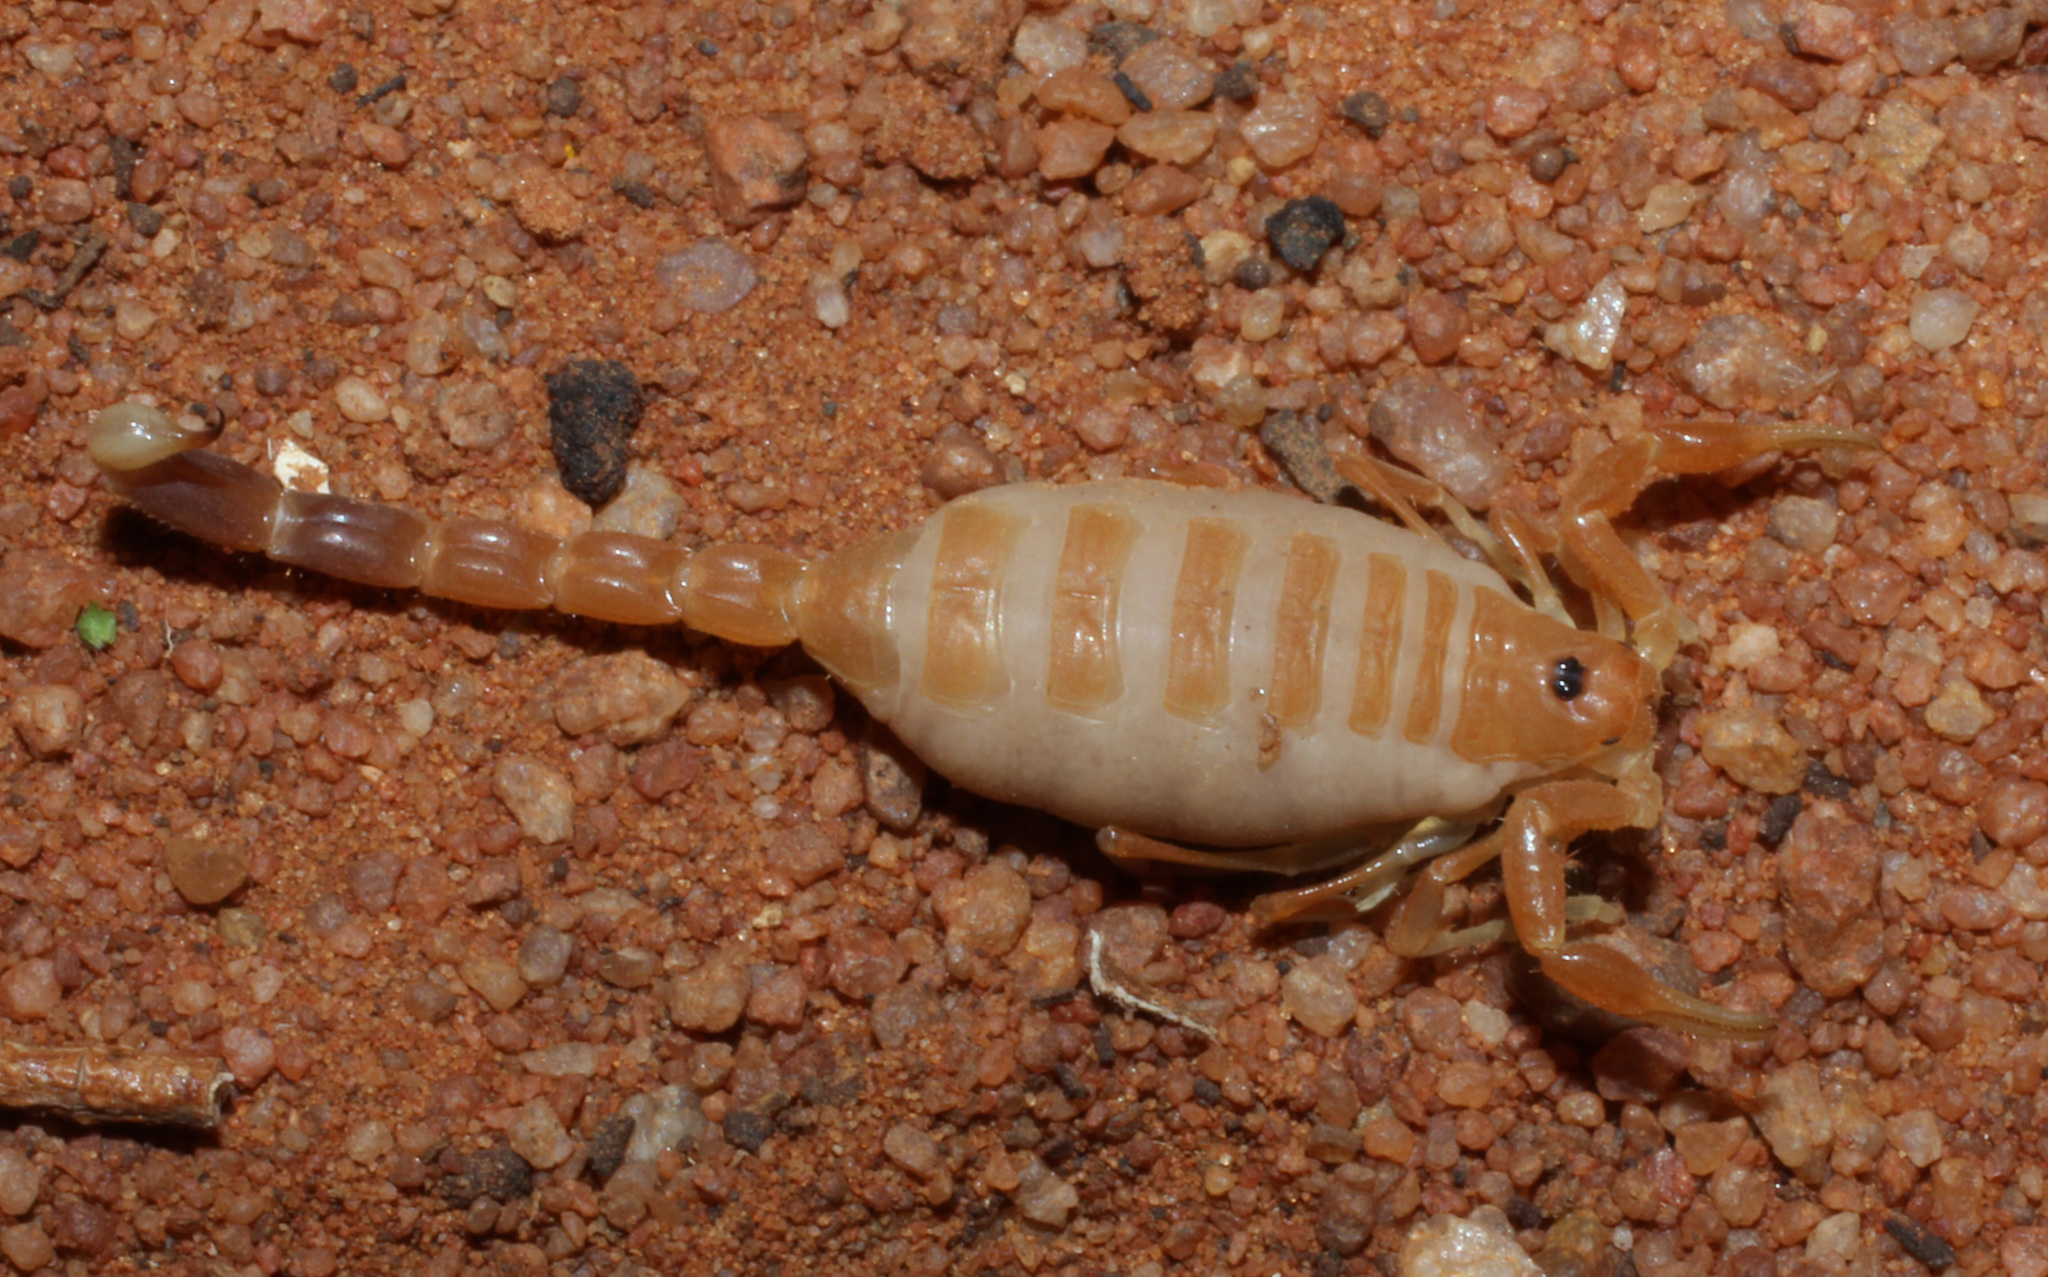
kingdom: Animalia
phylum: Arthropoda
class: Arachnida
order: Scorpiones
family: Buthidae
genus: Parabuthus
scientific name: Parabuthus kuanyamarum
